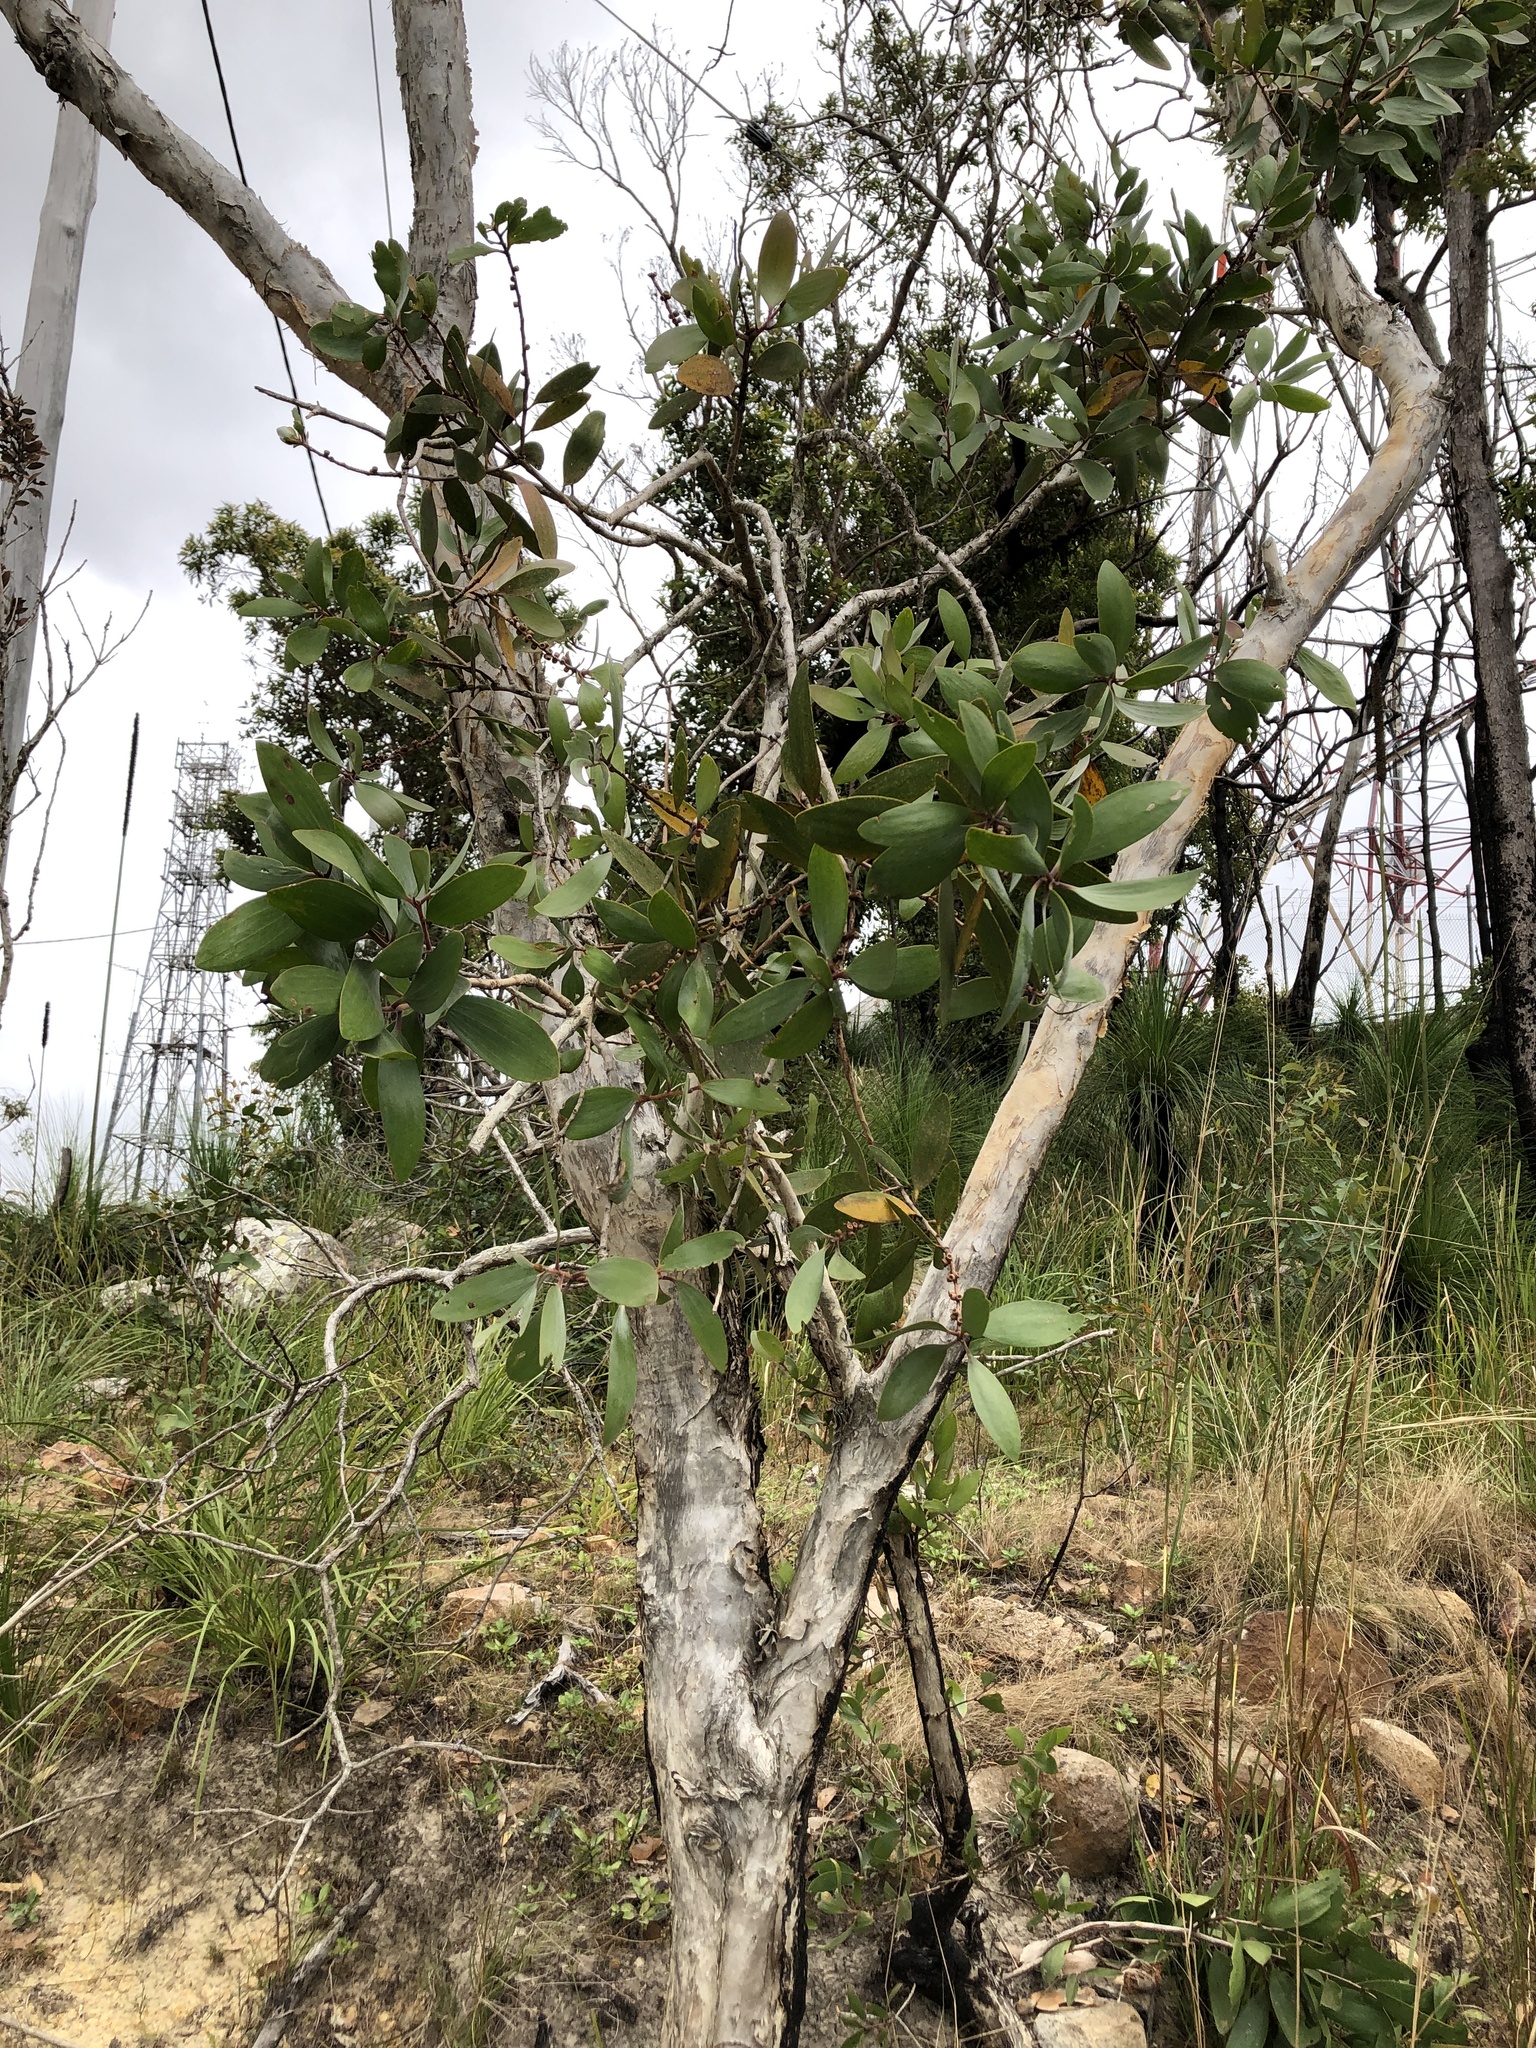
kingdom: Plantae
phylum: Tracheophyta
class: Magnoliopsida
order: Myrtales
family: Myrtaceae
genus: Melaleuca
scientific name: Melaleuca viridiflora
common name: Brown-leaved paperbark
